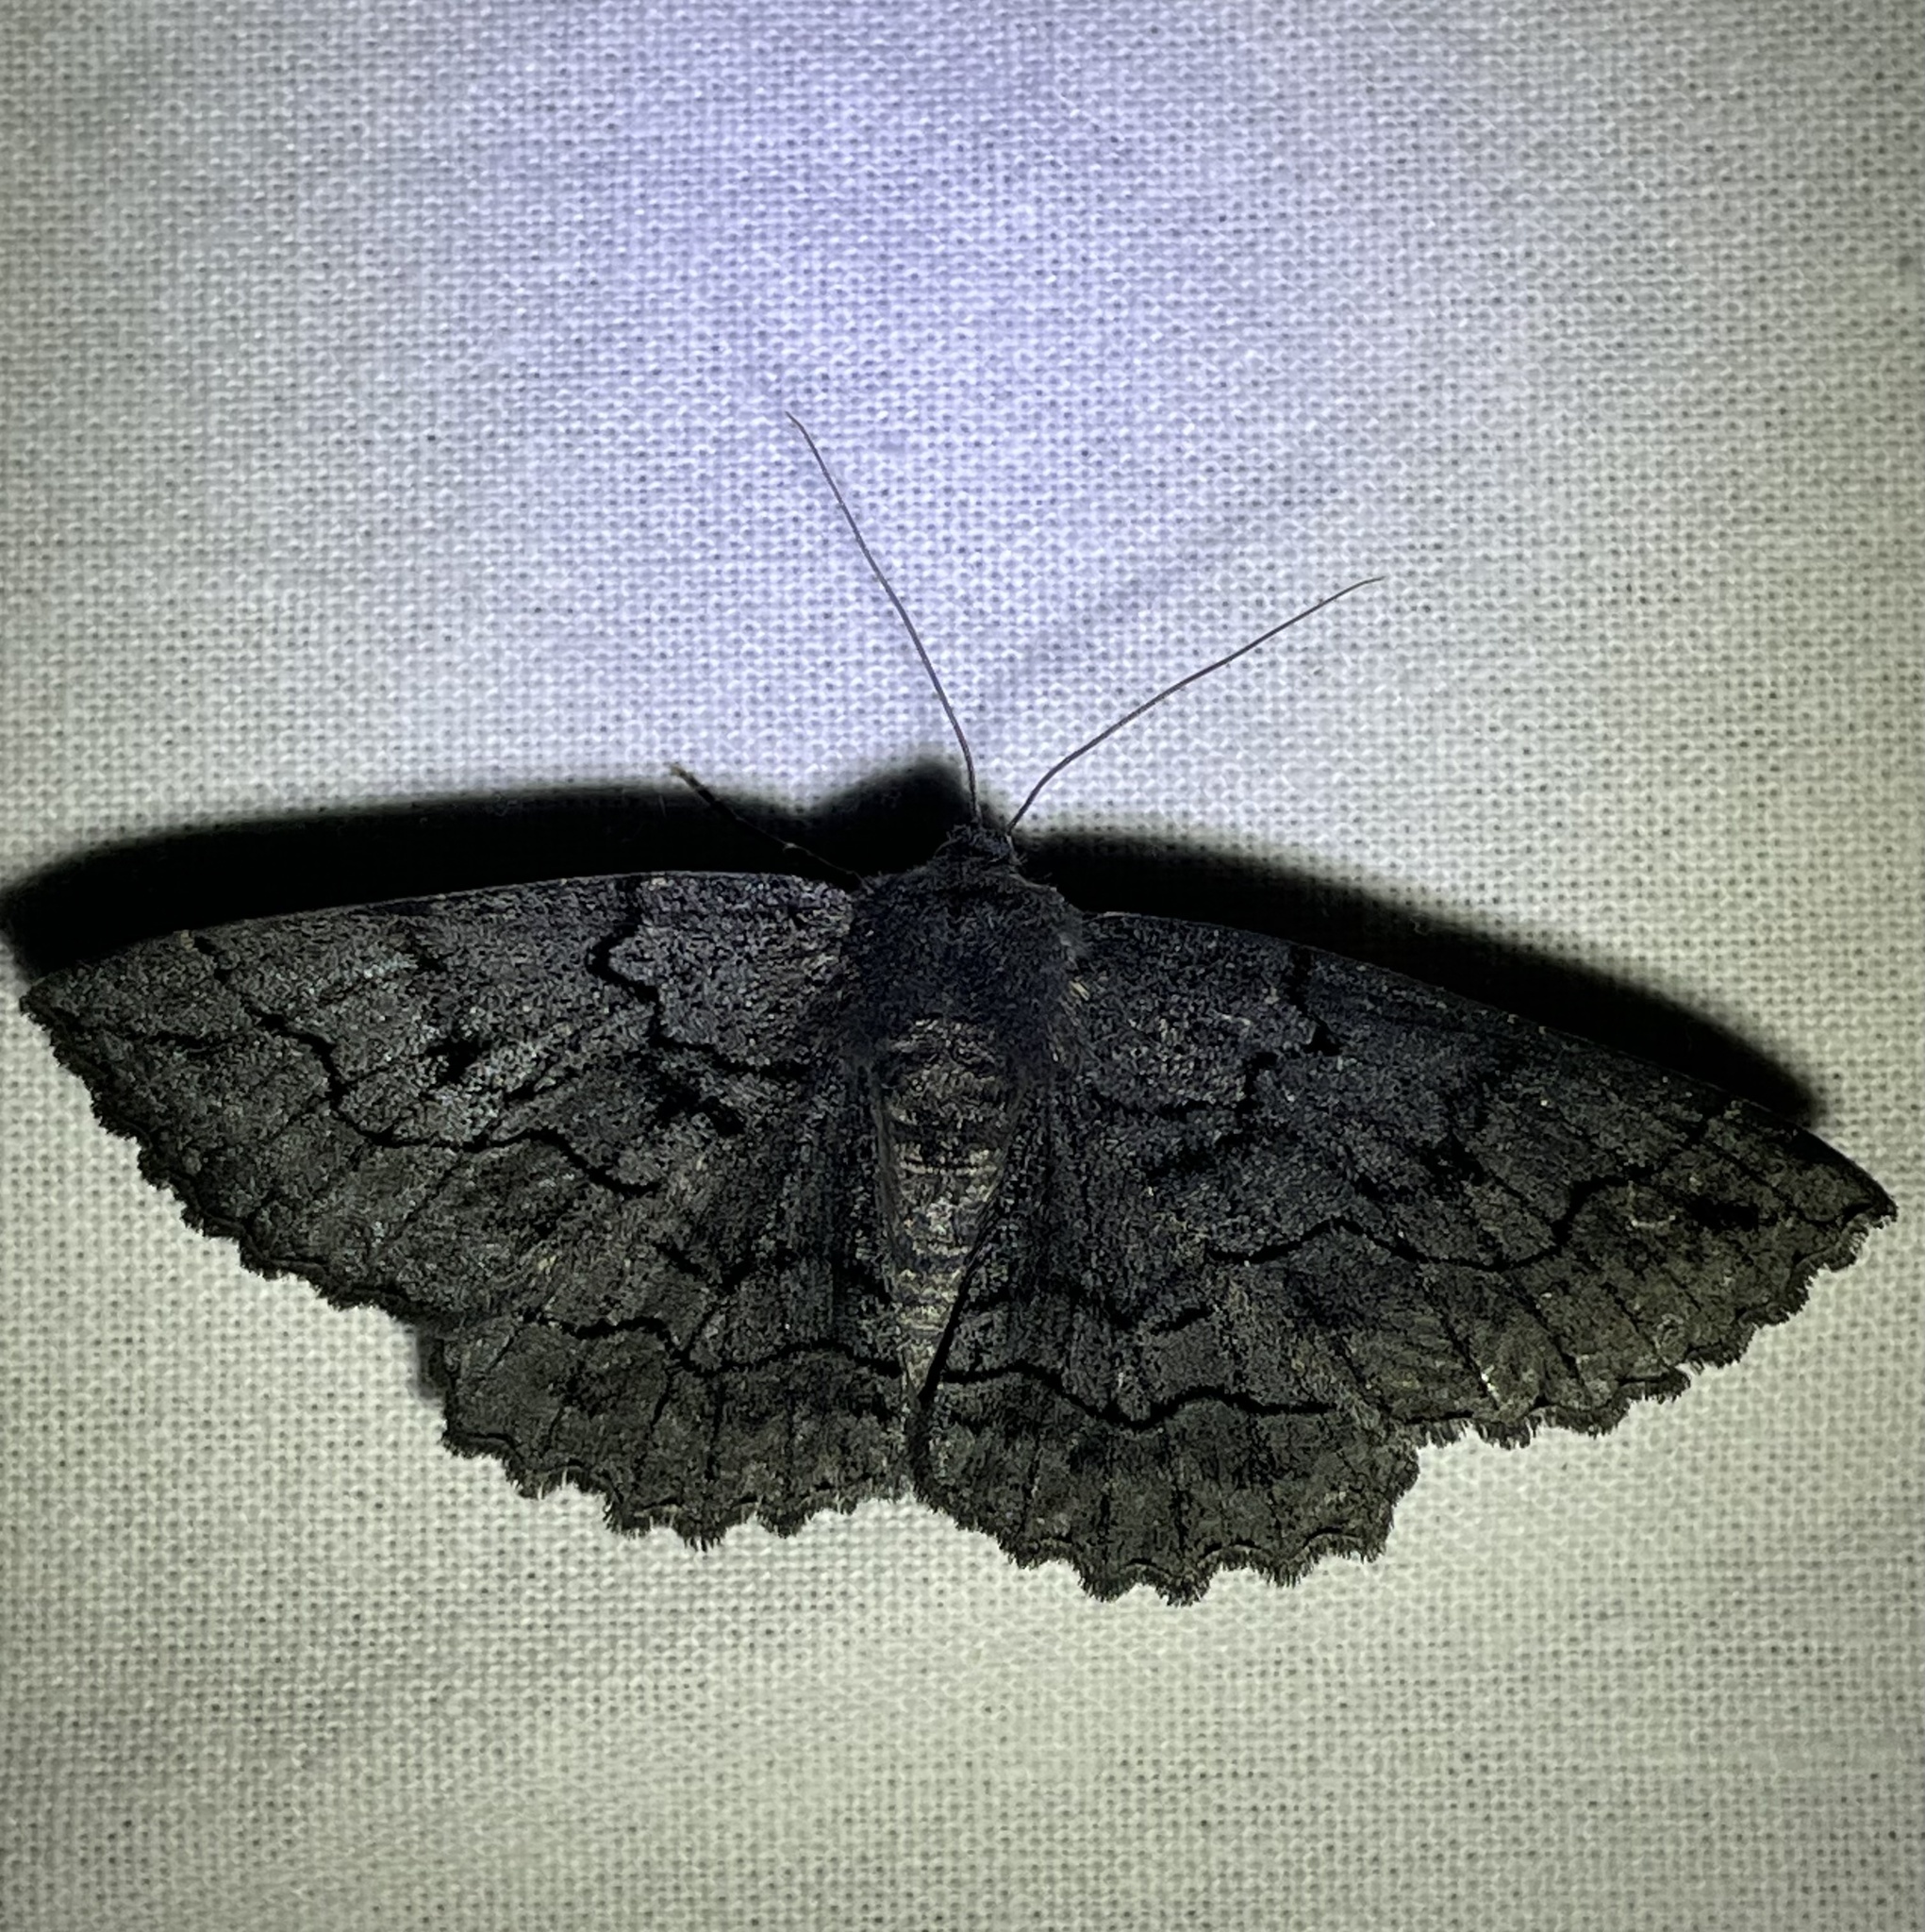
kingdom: Animalia
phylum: Arthropoda
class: Insecta
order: Lepidoptera
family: Geometridae
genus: Melanodes
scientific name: Melanodes anthracitaria
